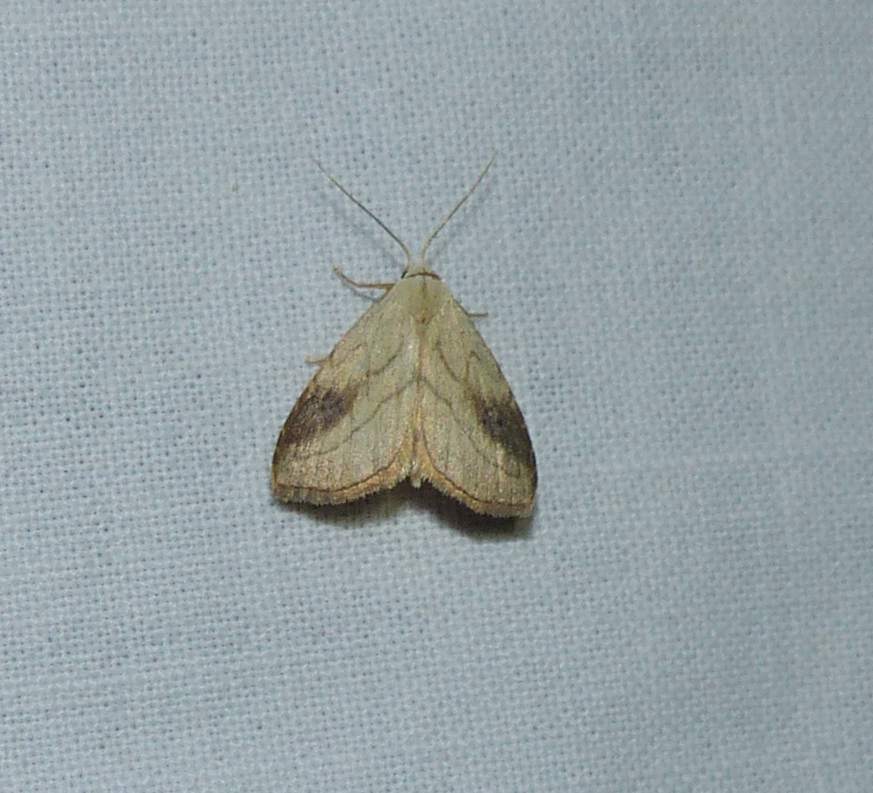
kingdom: Animalia
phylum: Arthropoda
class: Insecta
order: Lepidoptera
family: Erebidae
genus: Rivula
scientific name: Rivula propinqualis
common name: Spotted grass moth
